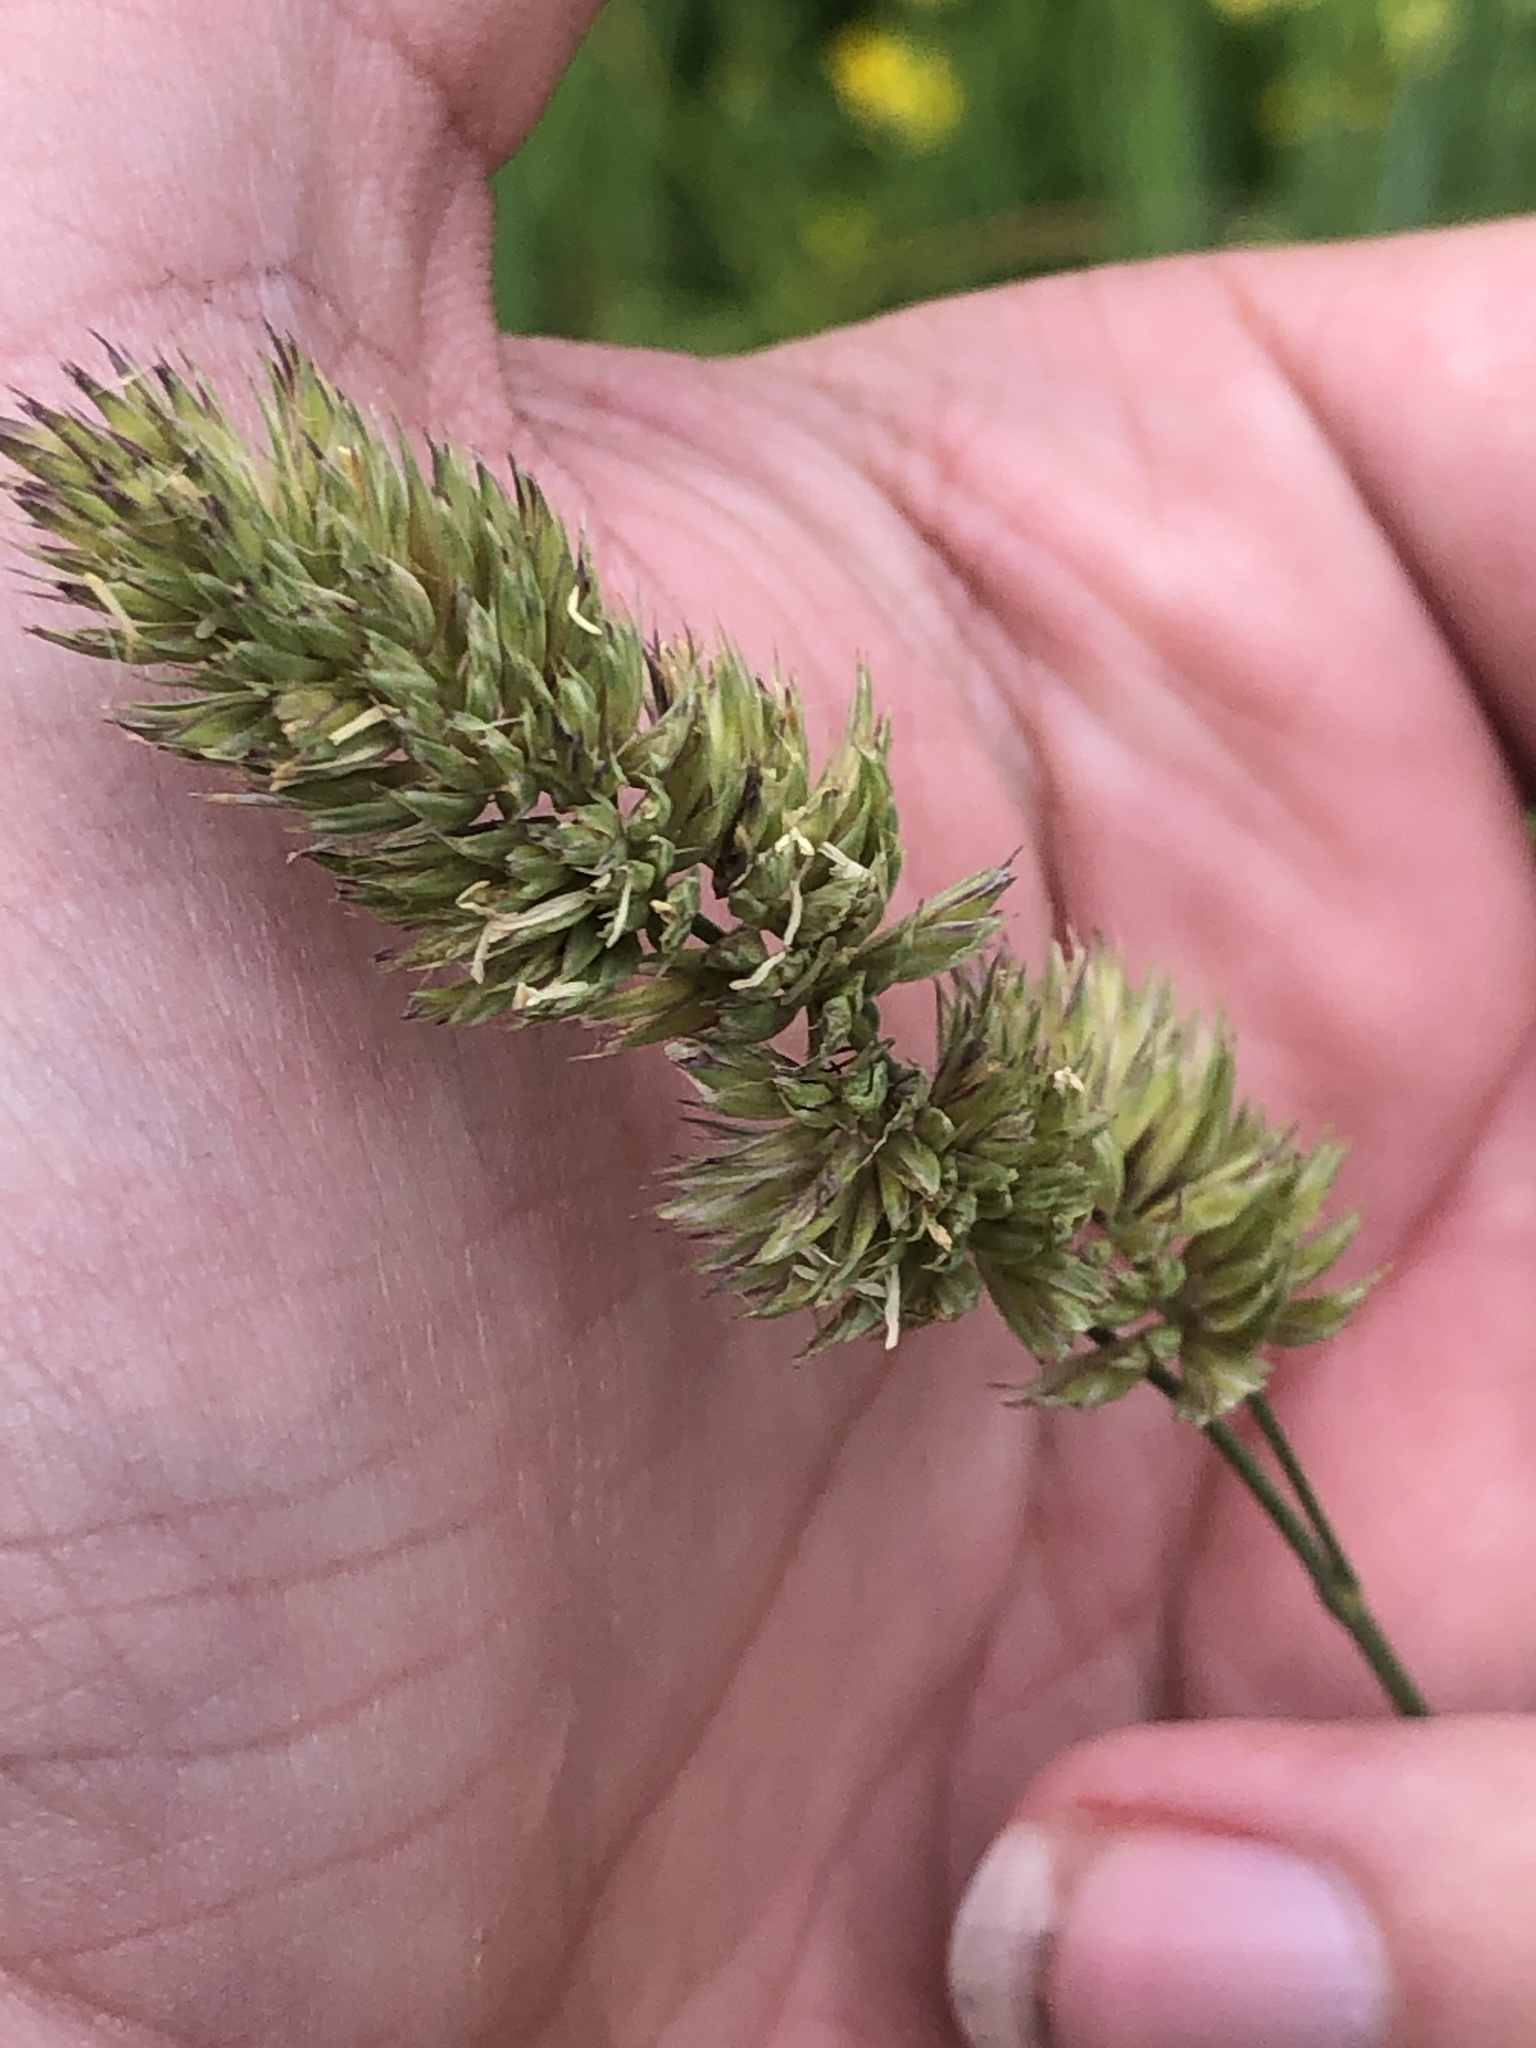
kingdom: Plantae
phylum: Tracheophyta
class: Liliopsida
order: Poales
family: Poaceae
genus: Dactylis
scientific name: Dactylis glomerata
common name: Orchardgrass
